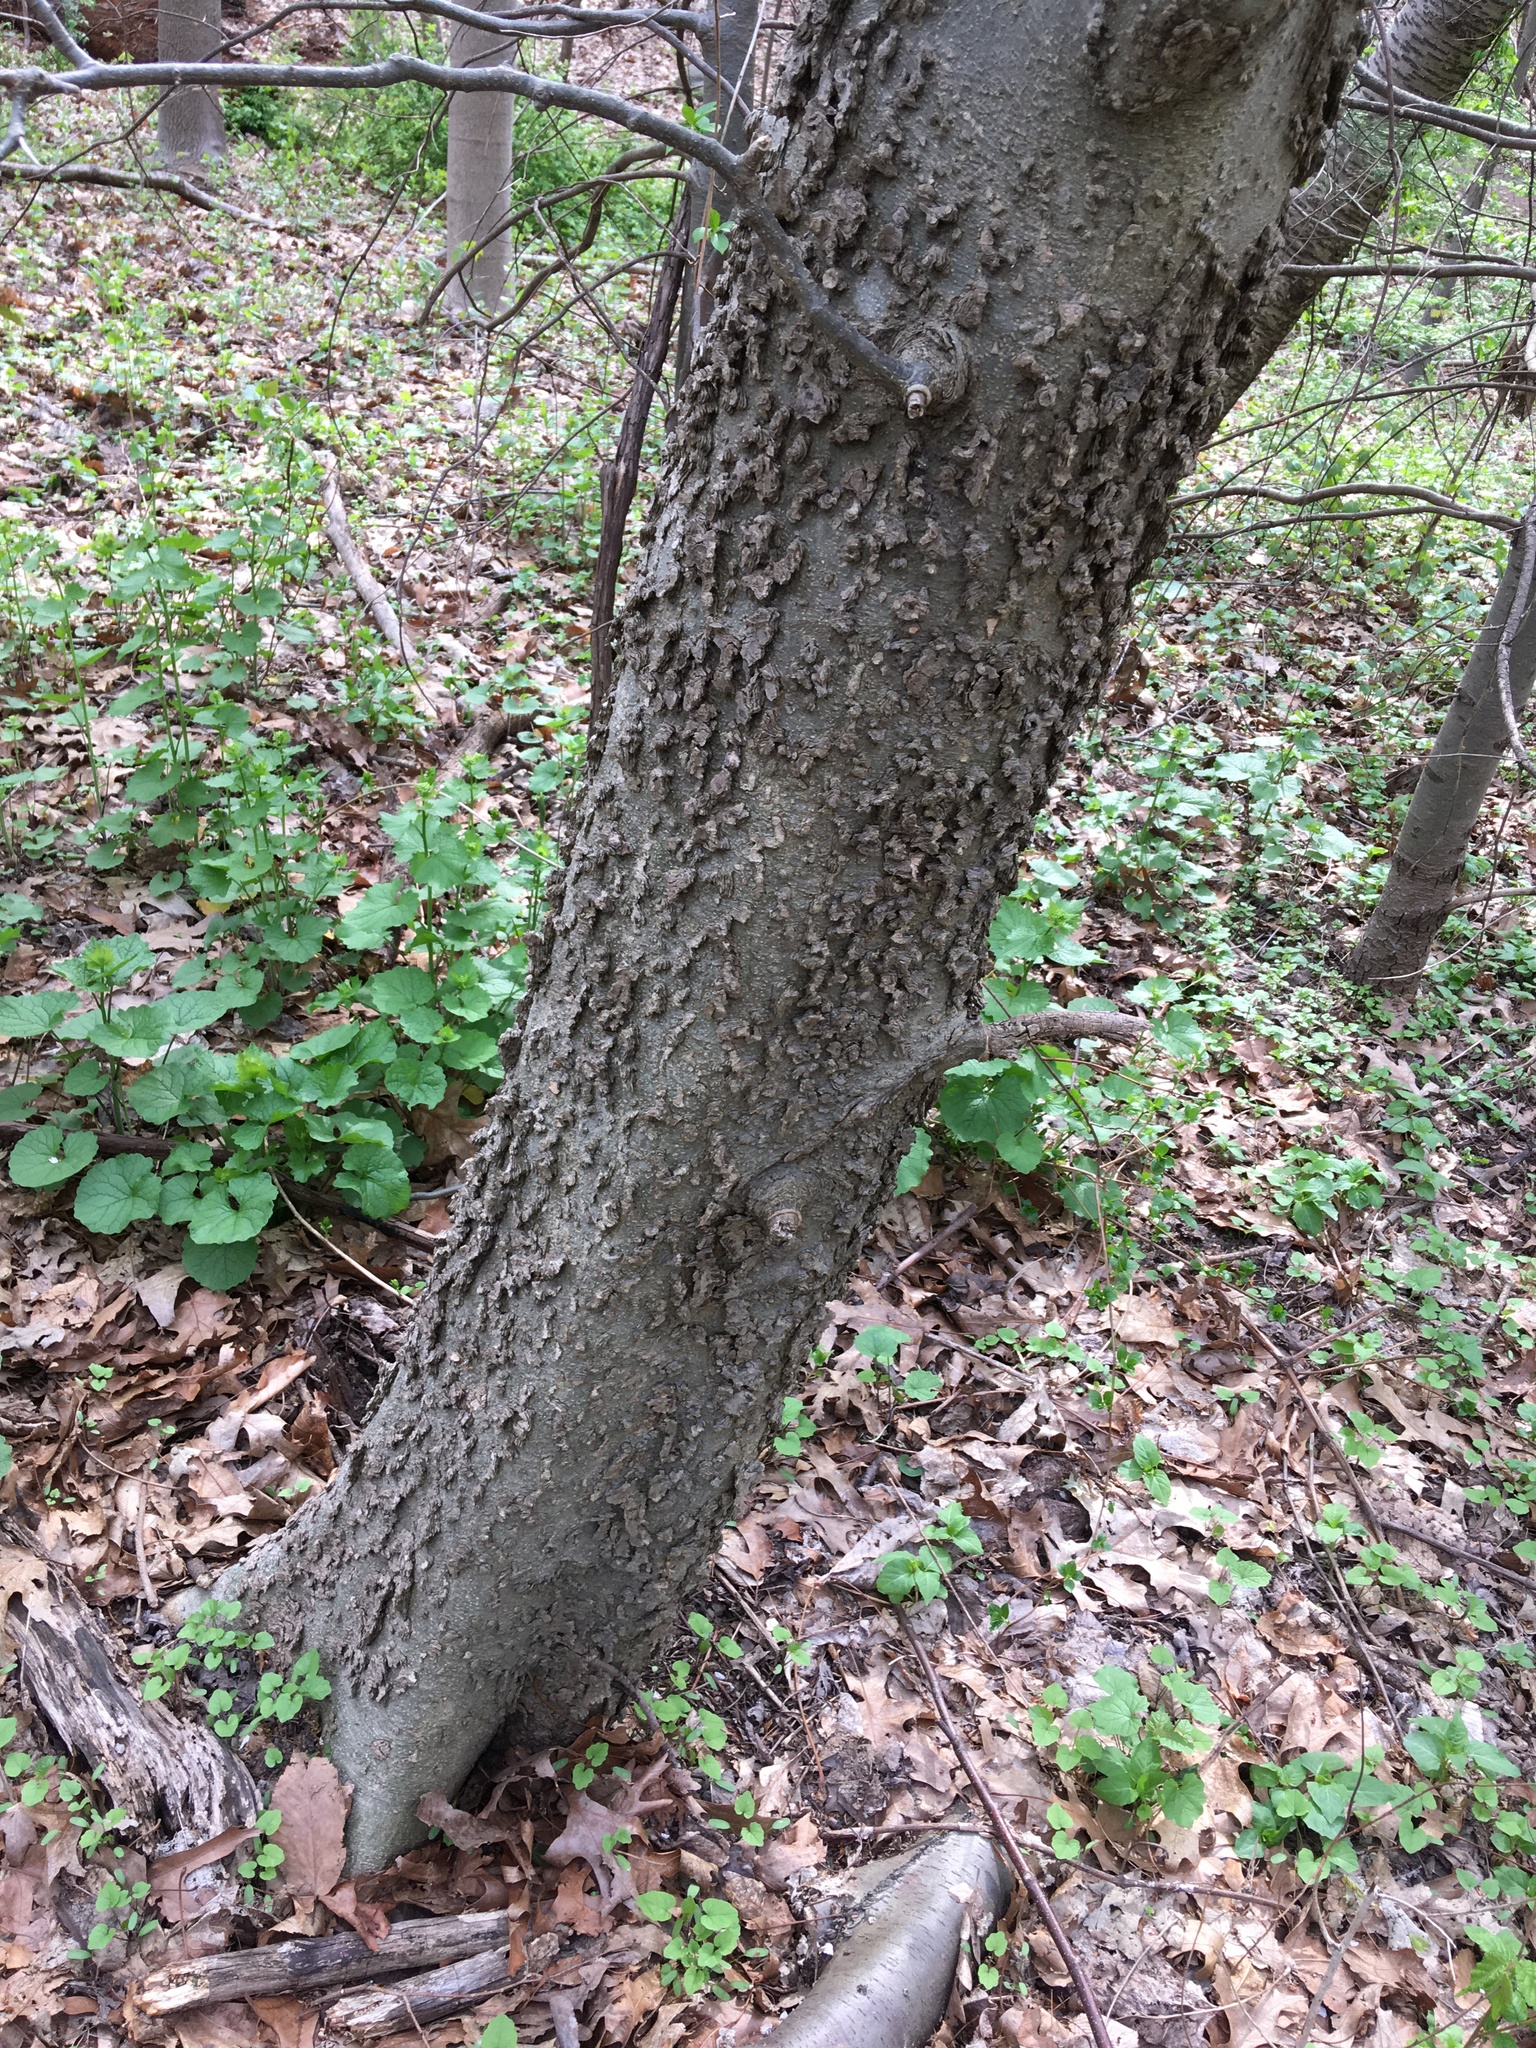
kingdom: Plantae
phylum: Tracheophyta
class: Magnoliopsida
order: Rosales
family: Cannabaceae
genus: Celtis
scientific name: Celtis occidentalis
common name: Common hackberry
